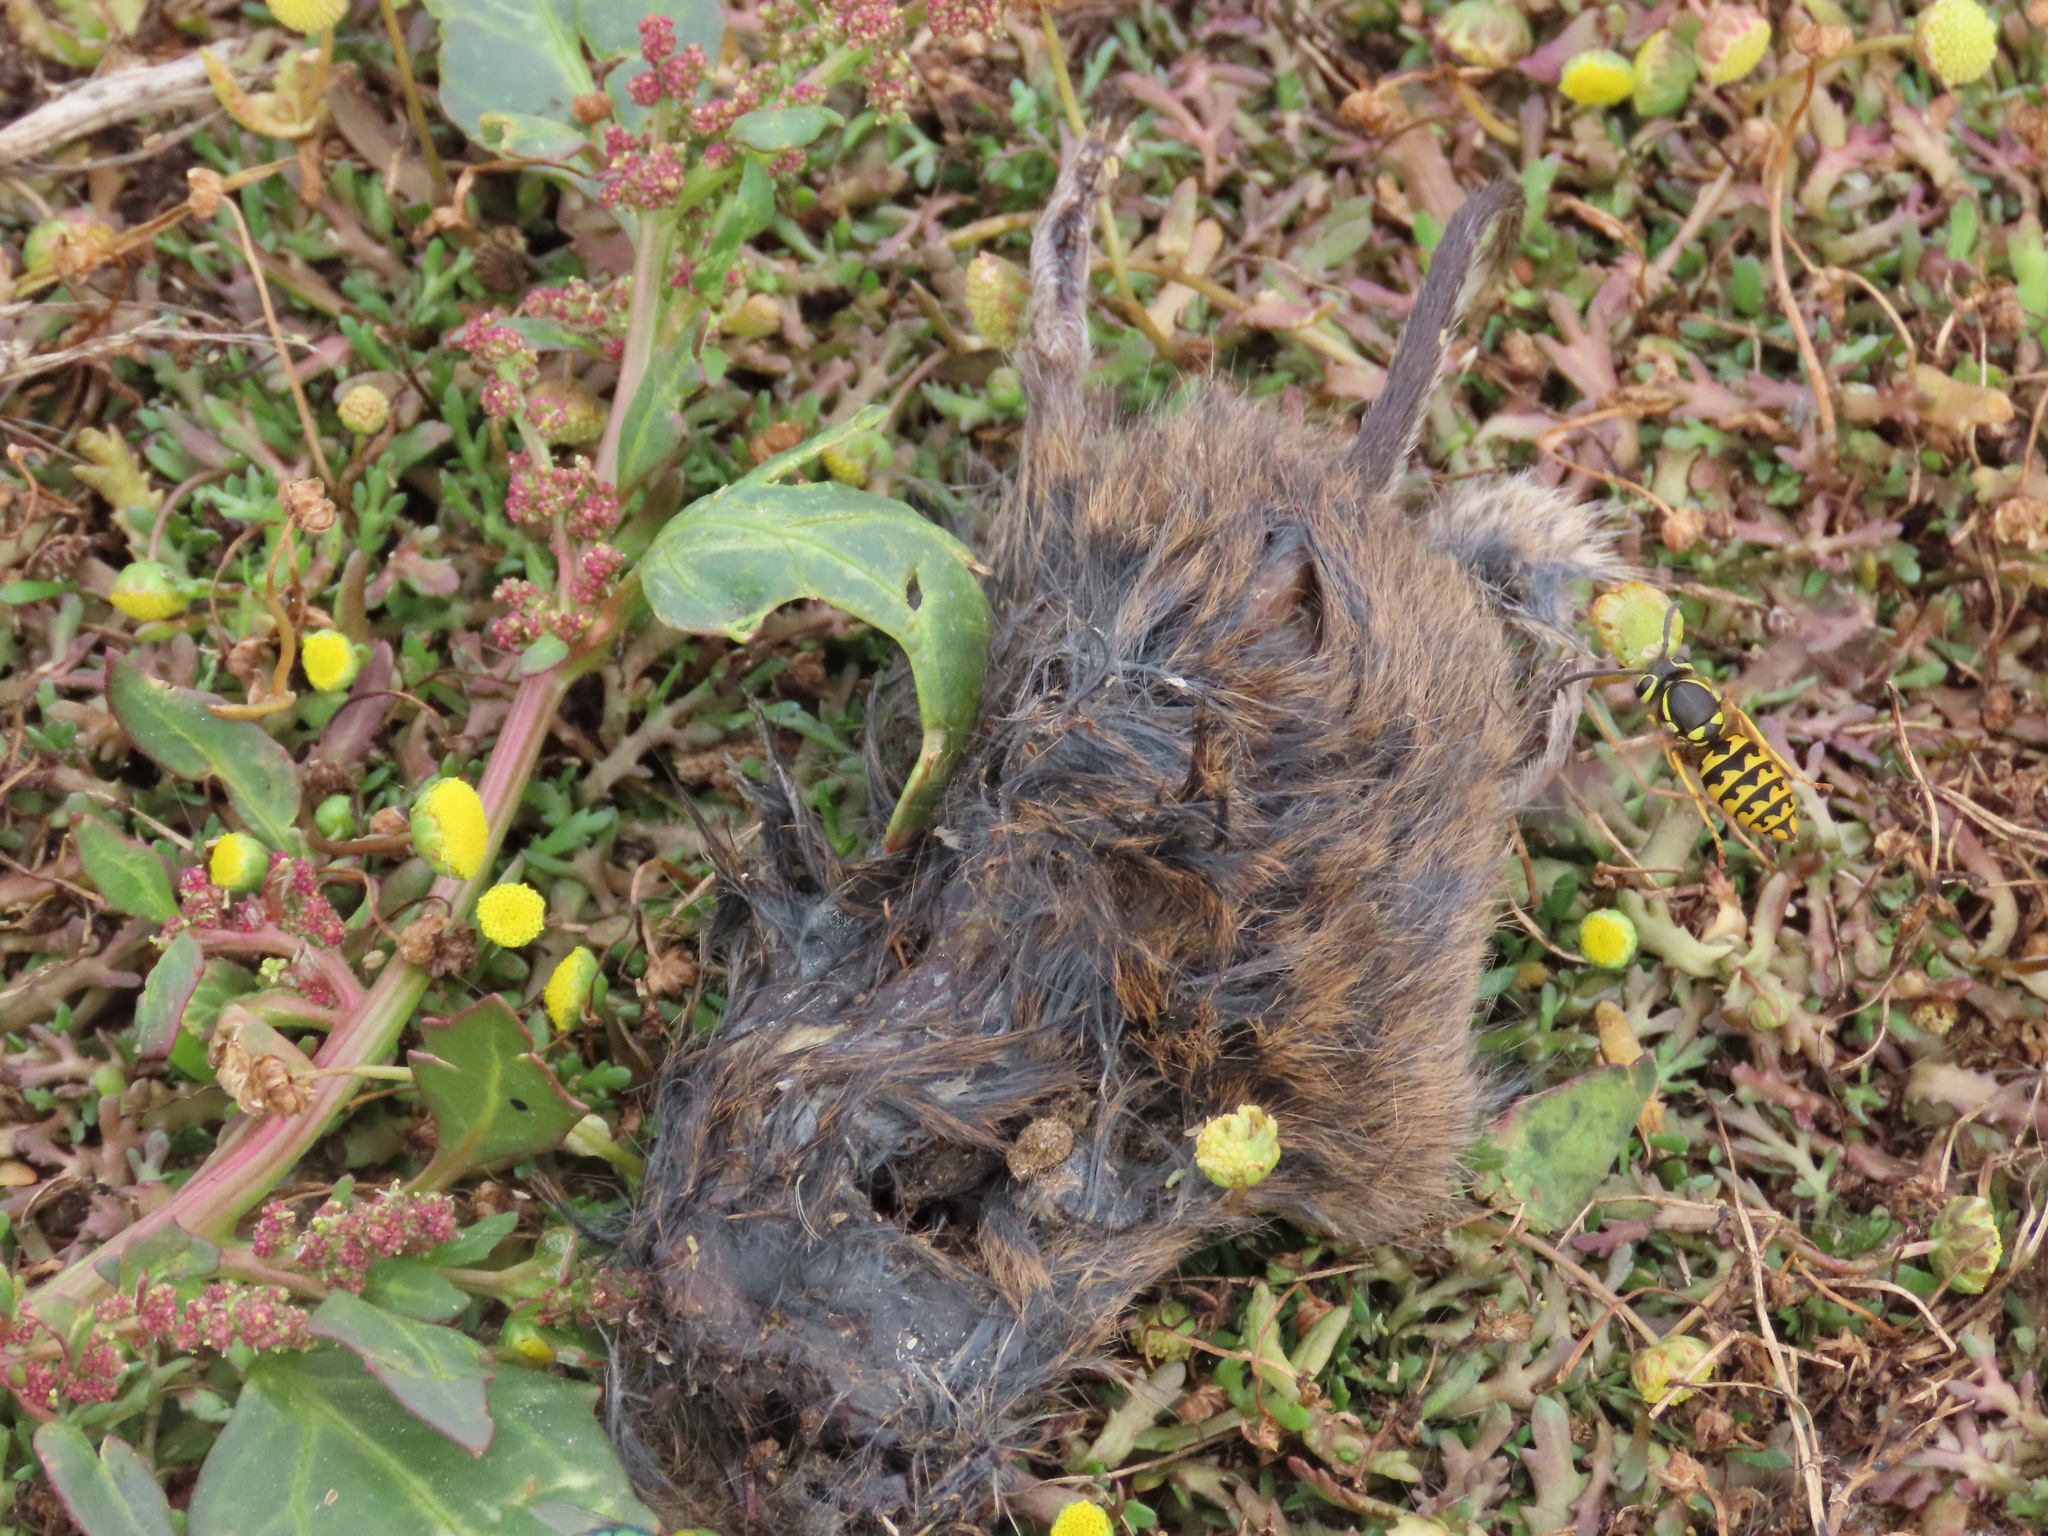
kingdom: Animalia
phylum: Arthropoda
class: Insecta
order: Hymenoptera
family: Vespidae
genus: Vespula
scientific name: Vespula pensylvanica
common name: Western yellowjacket
